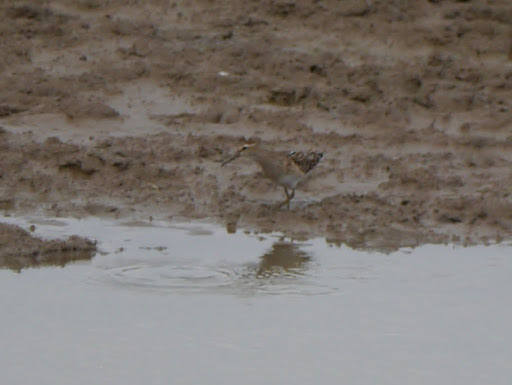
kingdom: Animalia
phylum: Chordata
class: Aves
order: Charadriiformes
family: Scolopacidae
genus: Calidris
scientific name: Calidris melanotos
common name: Pectoral sandpiper
